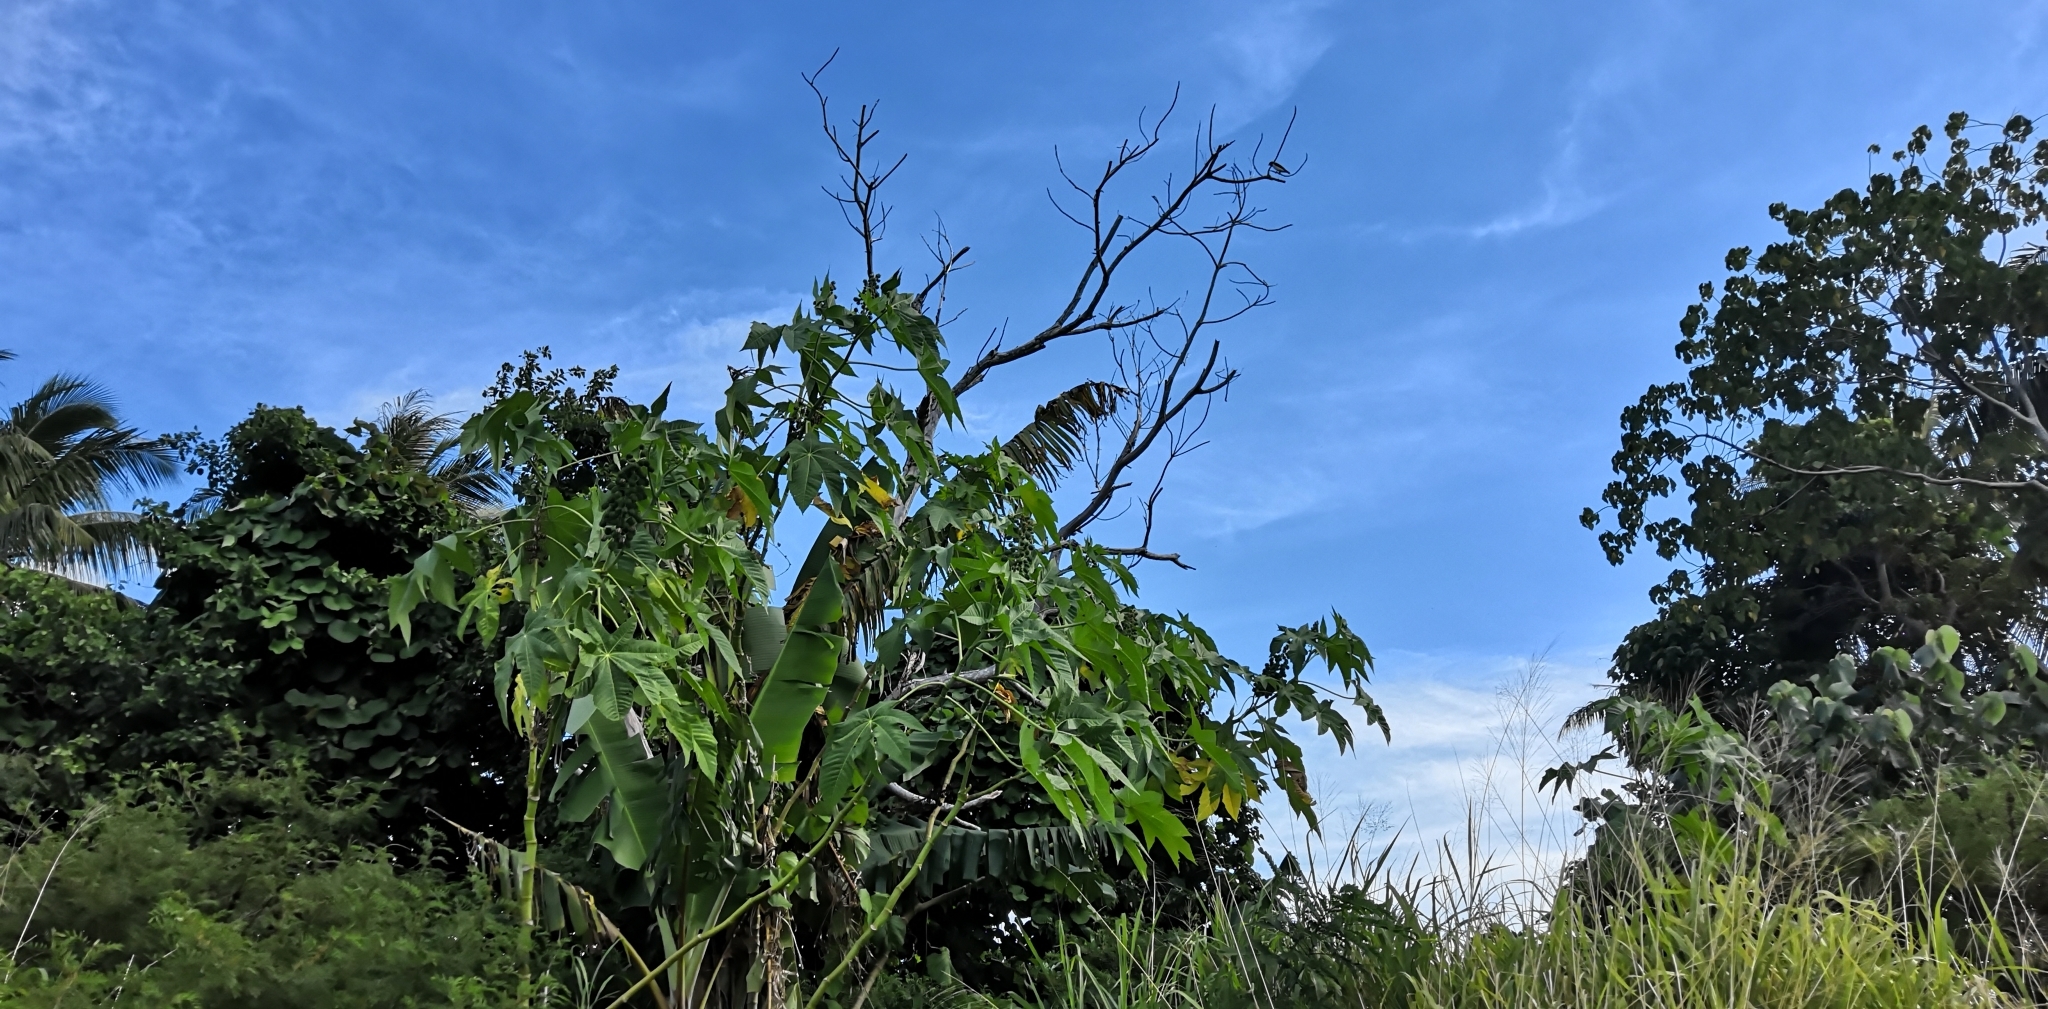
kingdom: Animalia
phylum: Chordata
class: Aves
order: Passeriformes
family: Artamidae
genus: Artamus
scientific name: Artamus leucoryn
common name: White-breasted woodswallow
